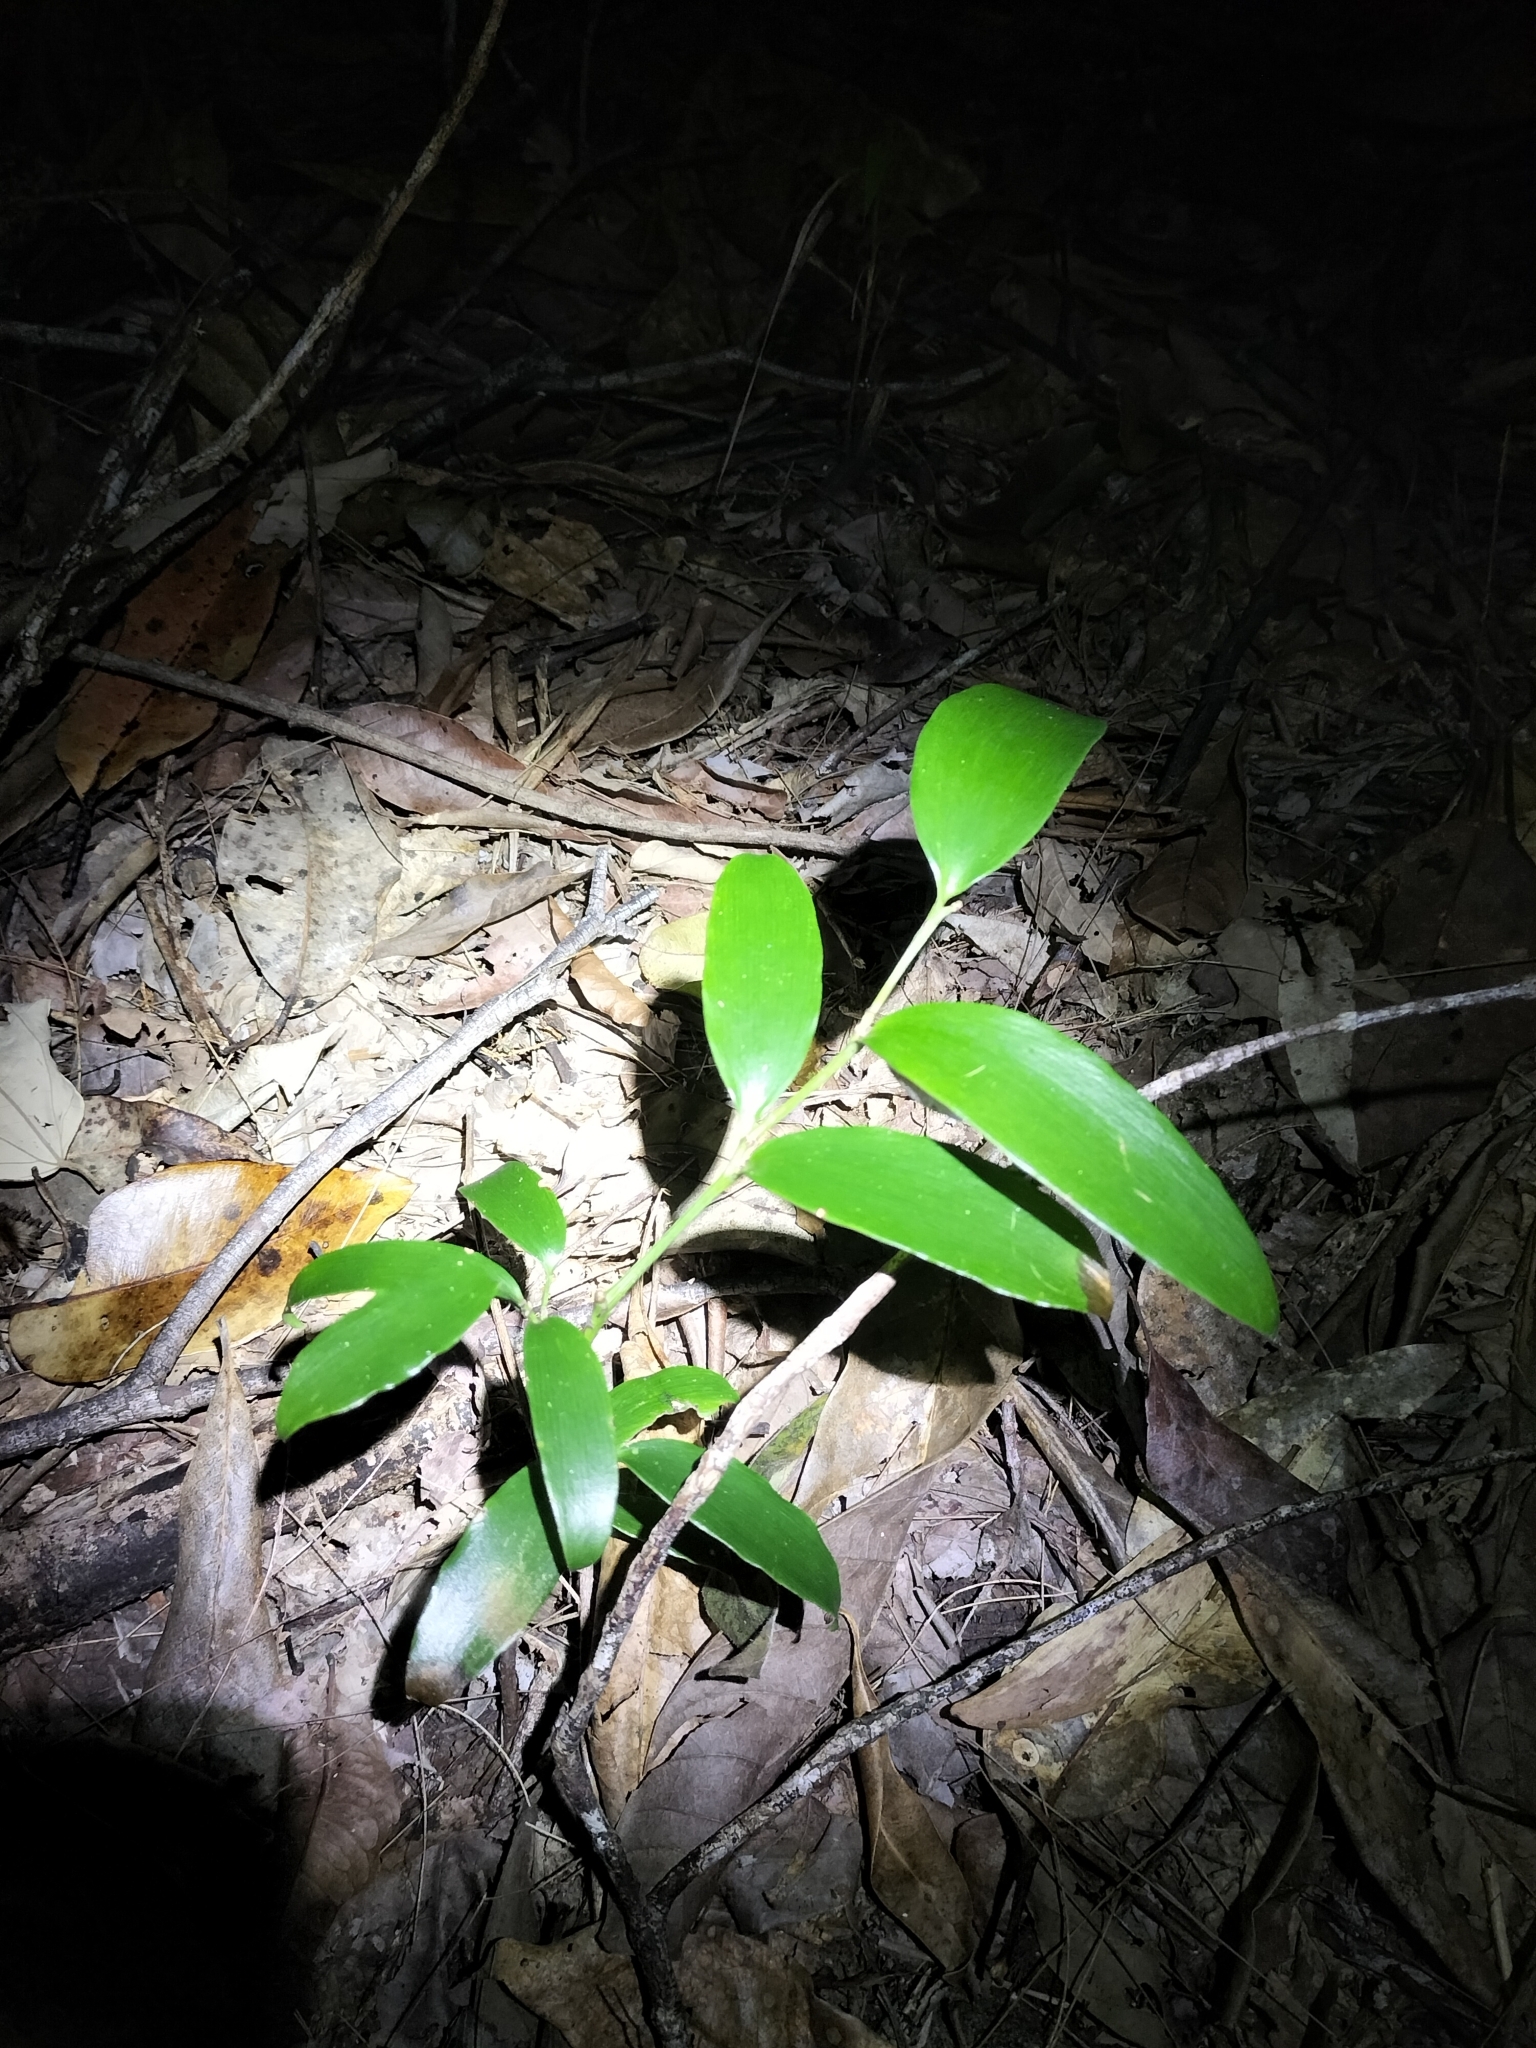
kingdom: Plantae
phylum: Tracheophyta
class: Pinopsida
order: Pinales
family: Araucariaceae
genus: Agathis
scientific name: Agathis robusta
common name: Australian-kauri
